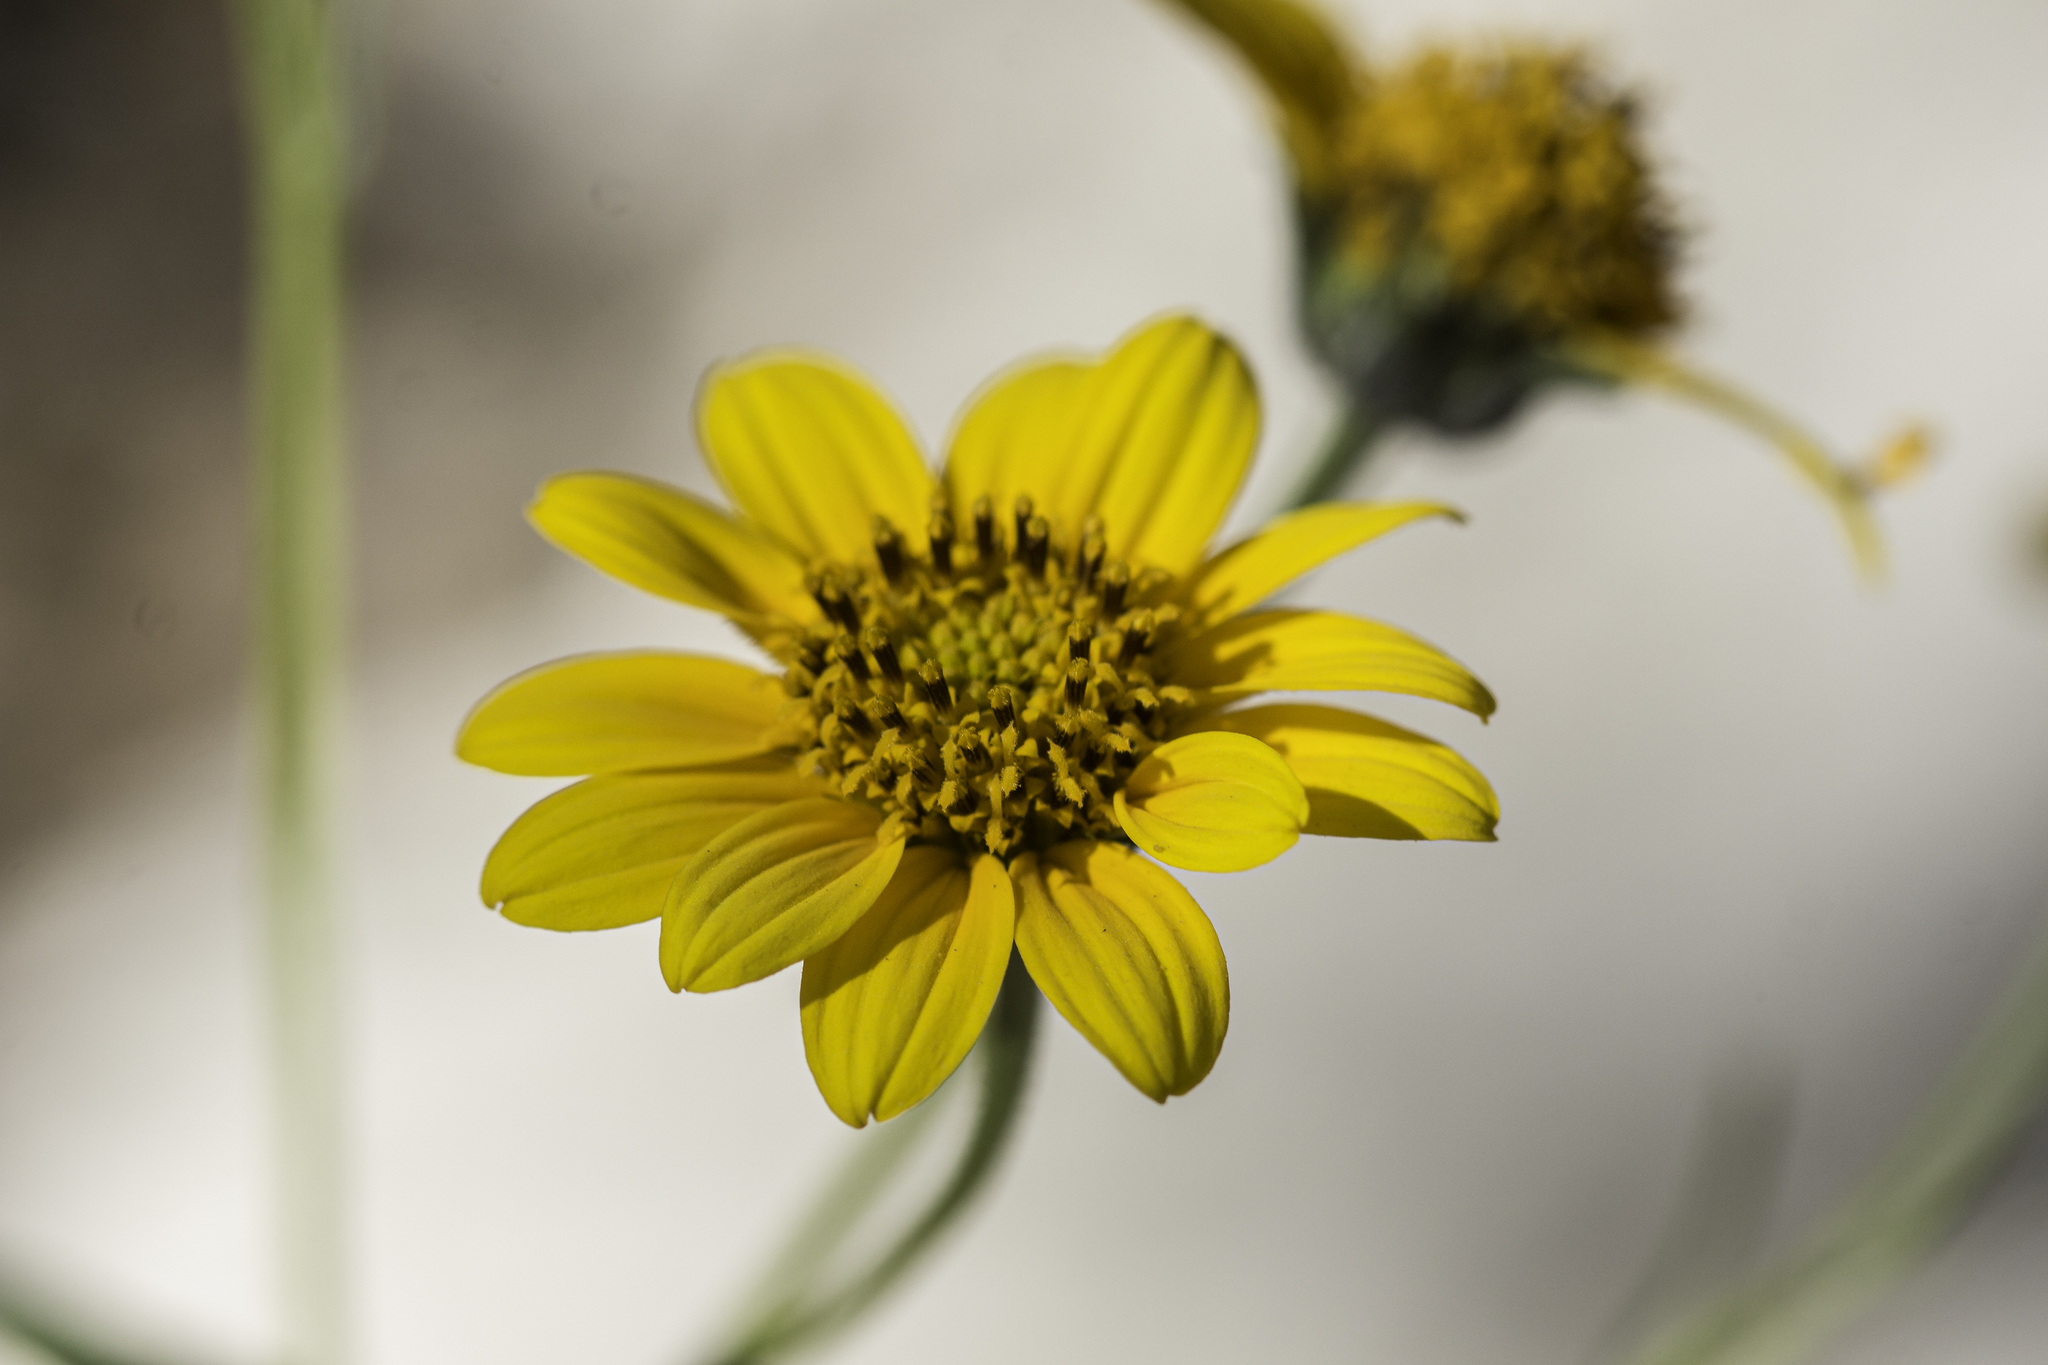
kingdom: Plantae
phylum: Tracheophyta
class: Magnoliopsida
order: Asterales
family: Asteraceae
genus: Viguiera
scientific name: Viguiera dentata
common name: Toothleaf
